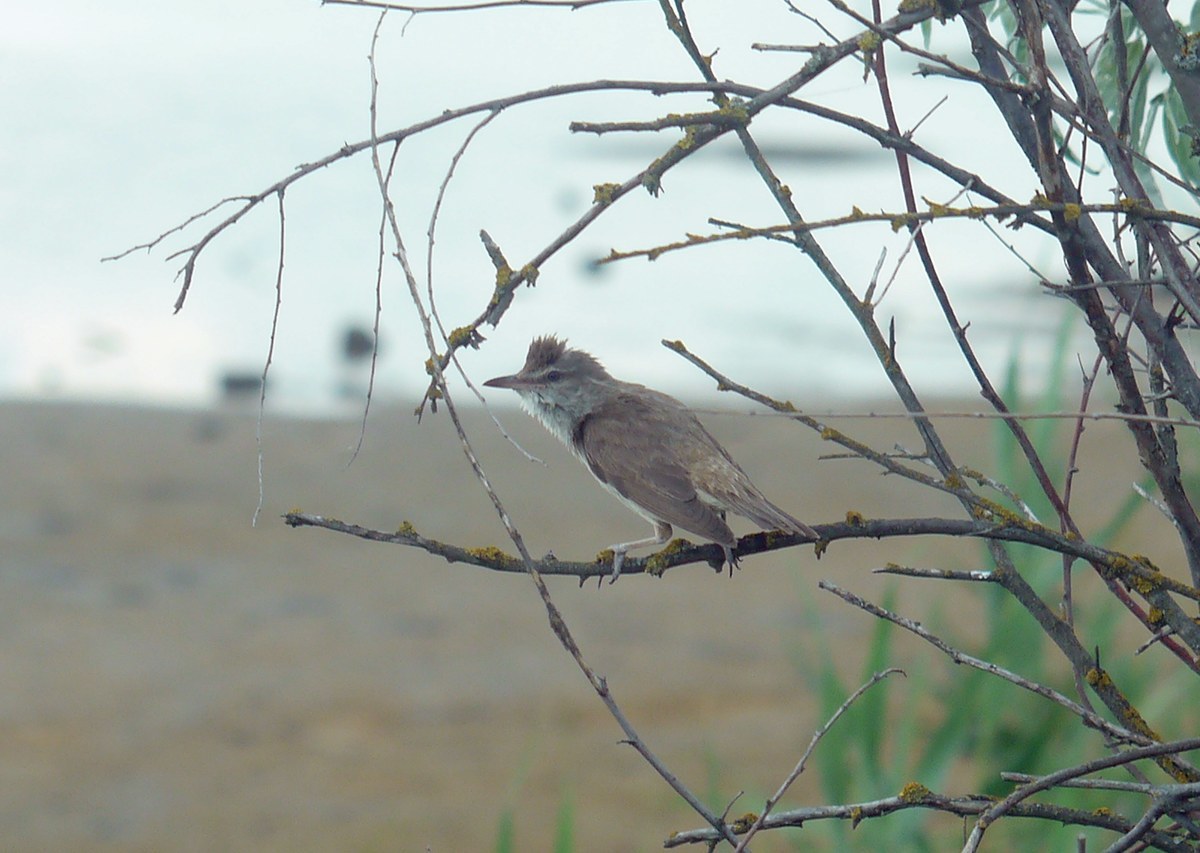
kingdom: Animalia
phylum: Chordata
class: Aves
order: Passeriformes
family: Acrocephalidae
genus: Acrocephalus
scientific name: Acrocephalus arundinaceus
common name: Great reed warbler
